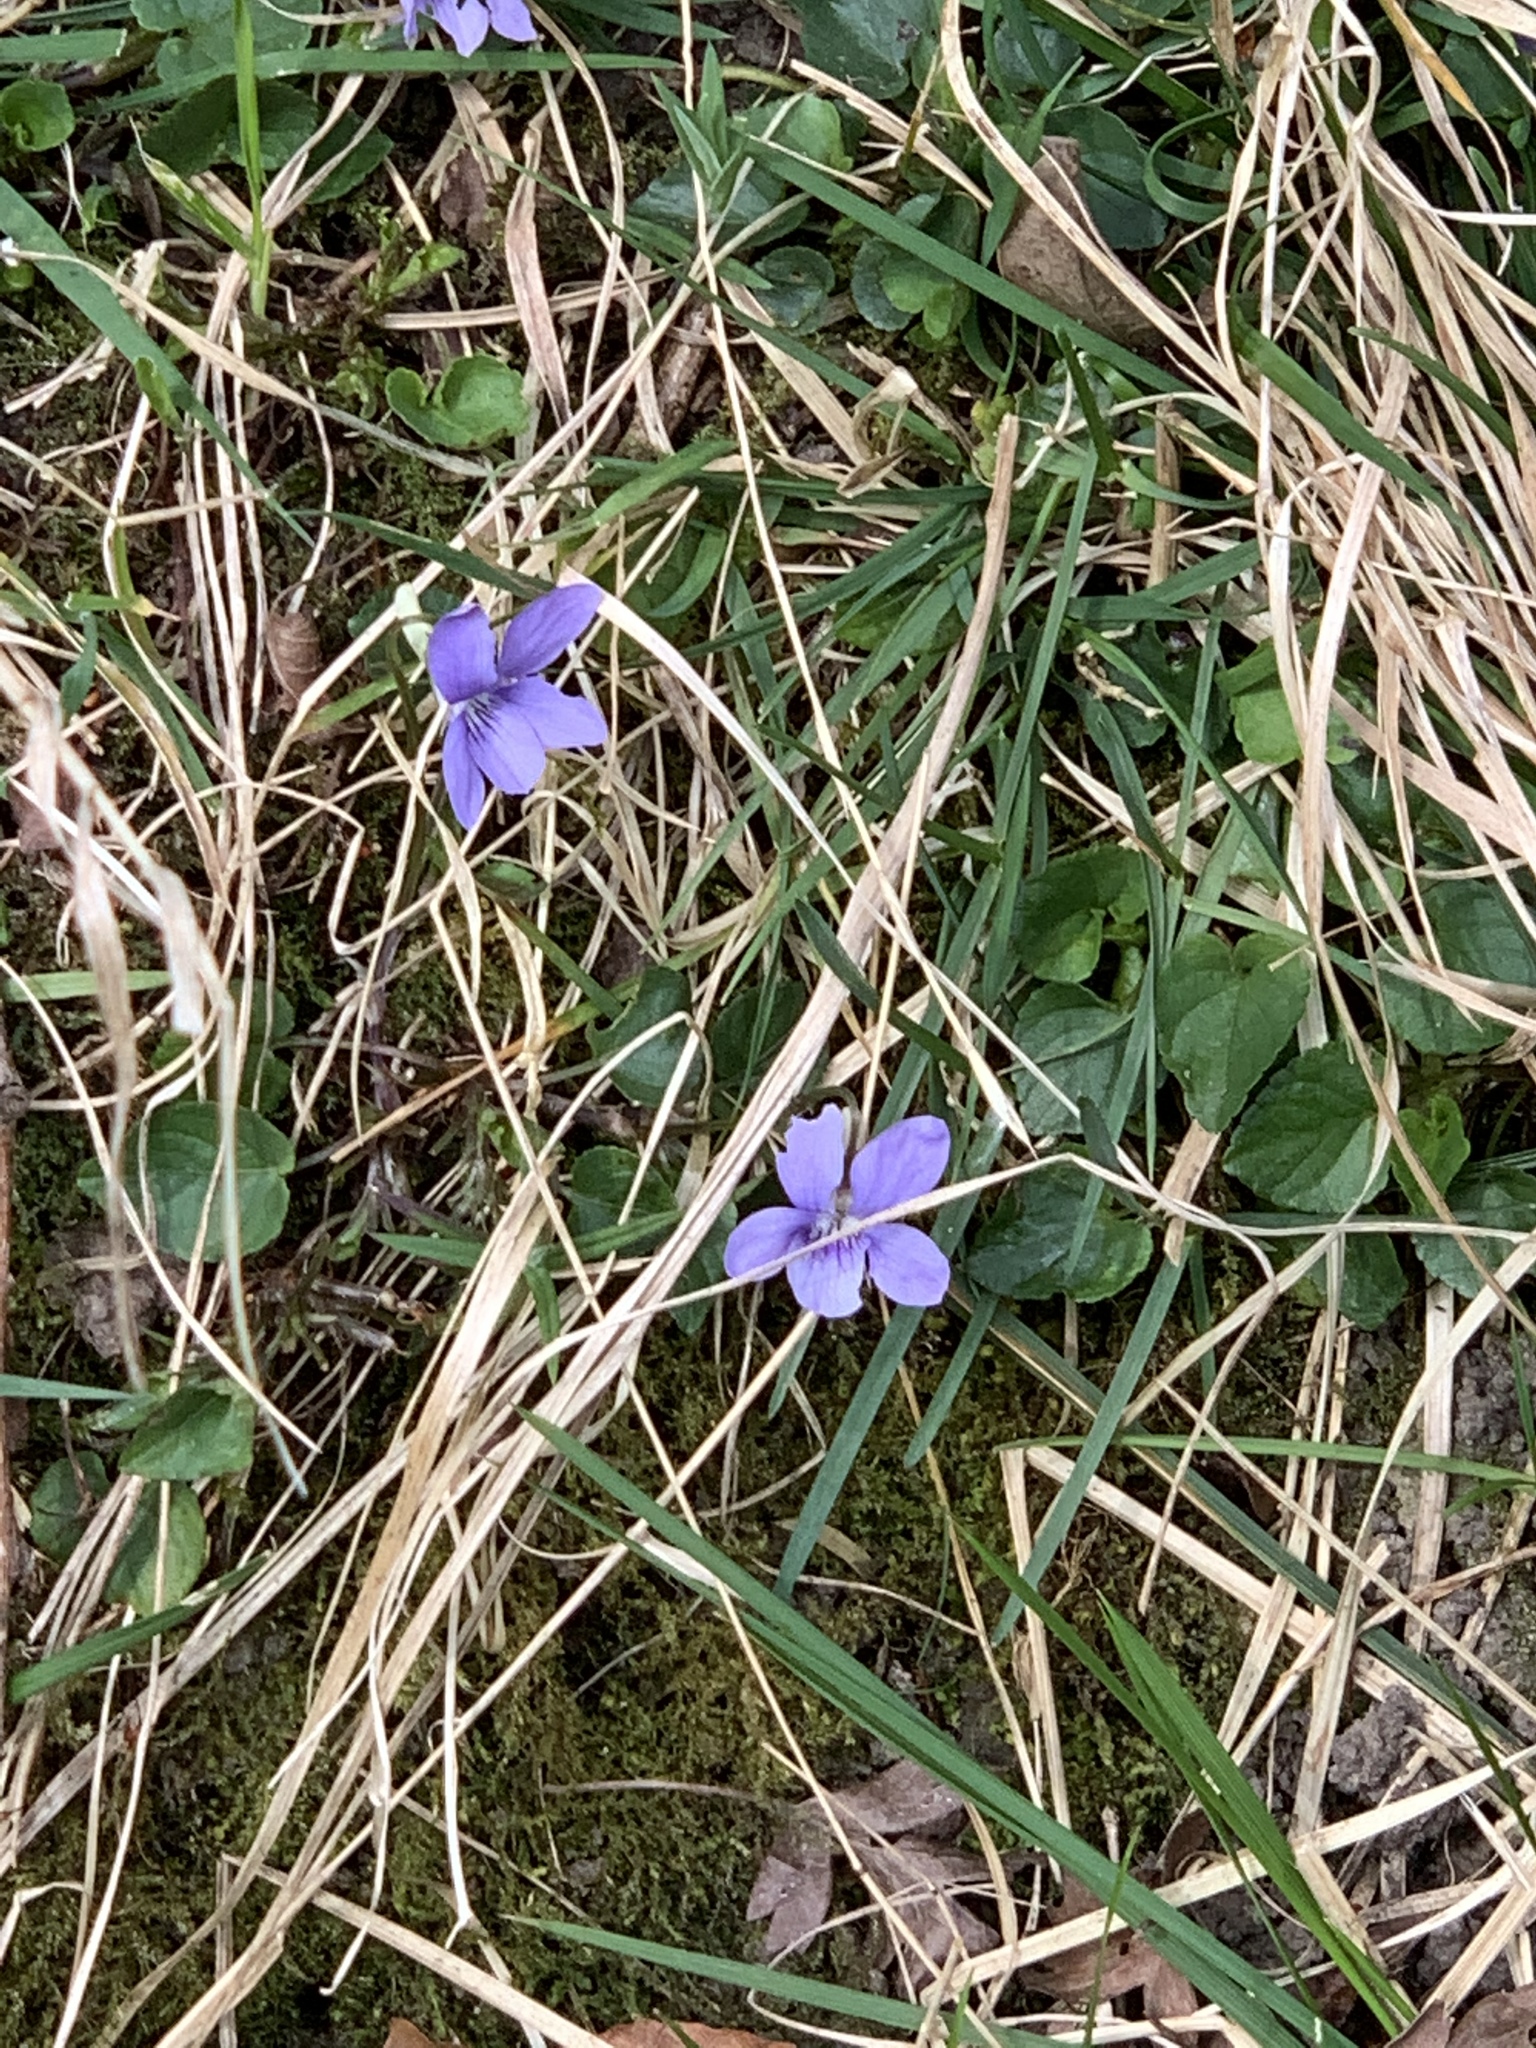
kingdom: Plantae
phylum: Tracheophyta
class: Magnoliopsida
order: Malpighiales
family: Violaceae
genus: Viola
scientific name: Viola riviniana
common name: Common dog-violet
